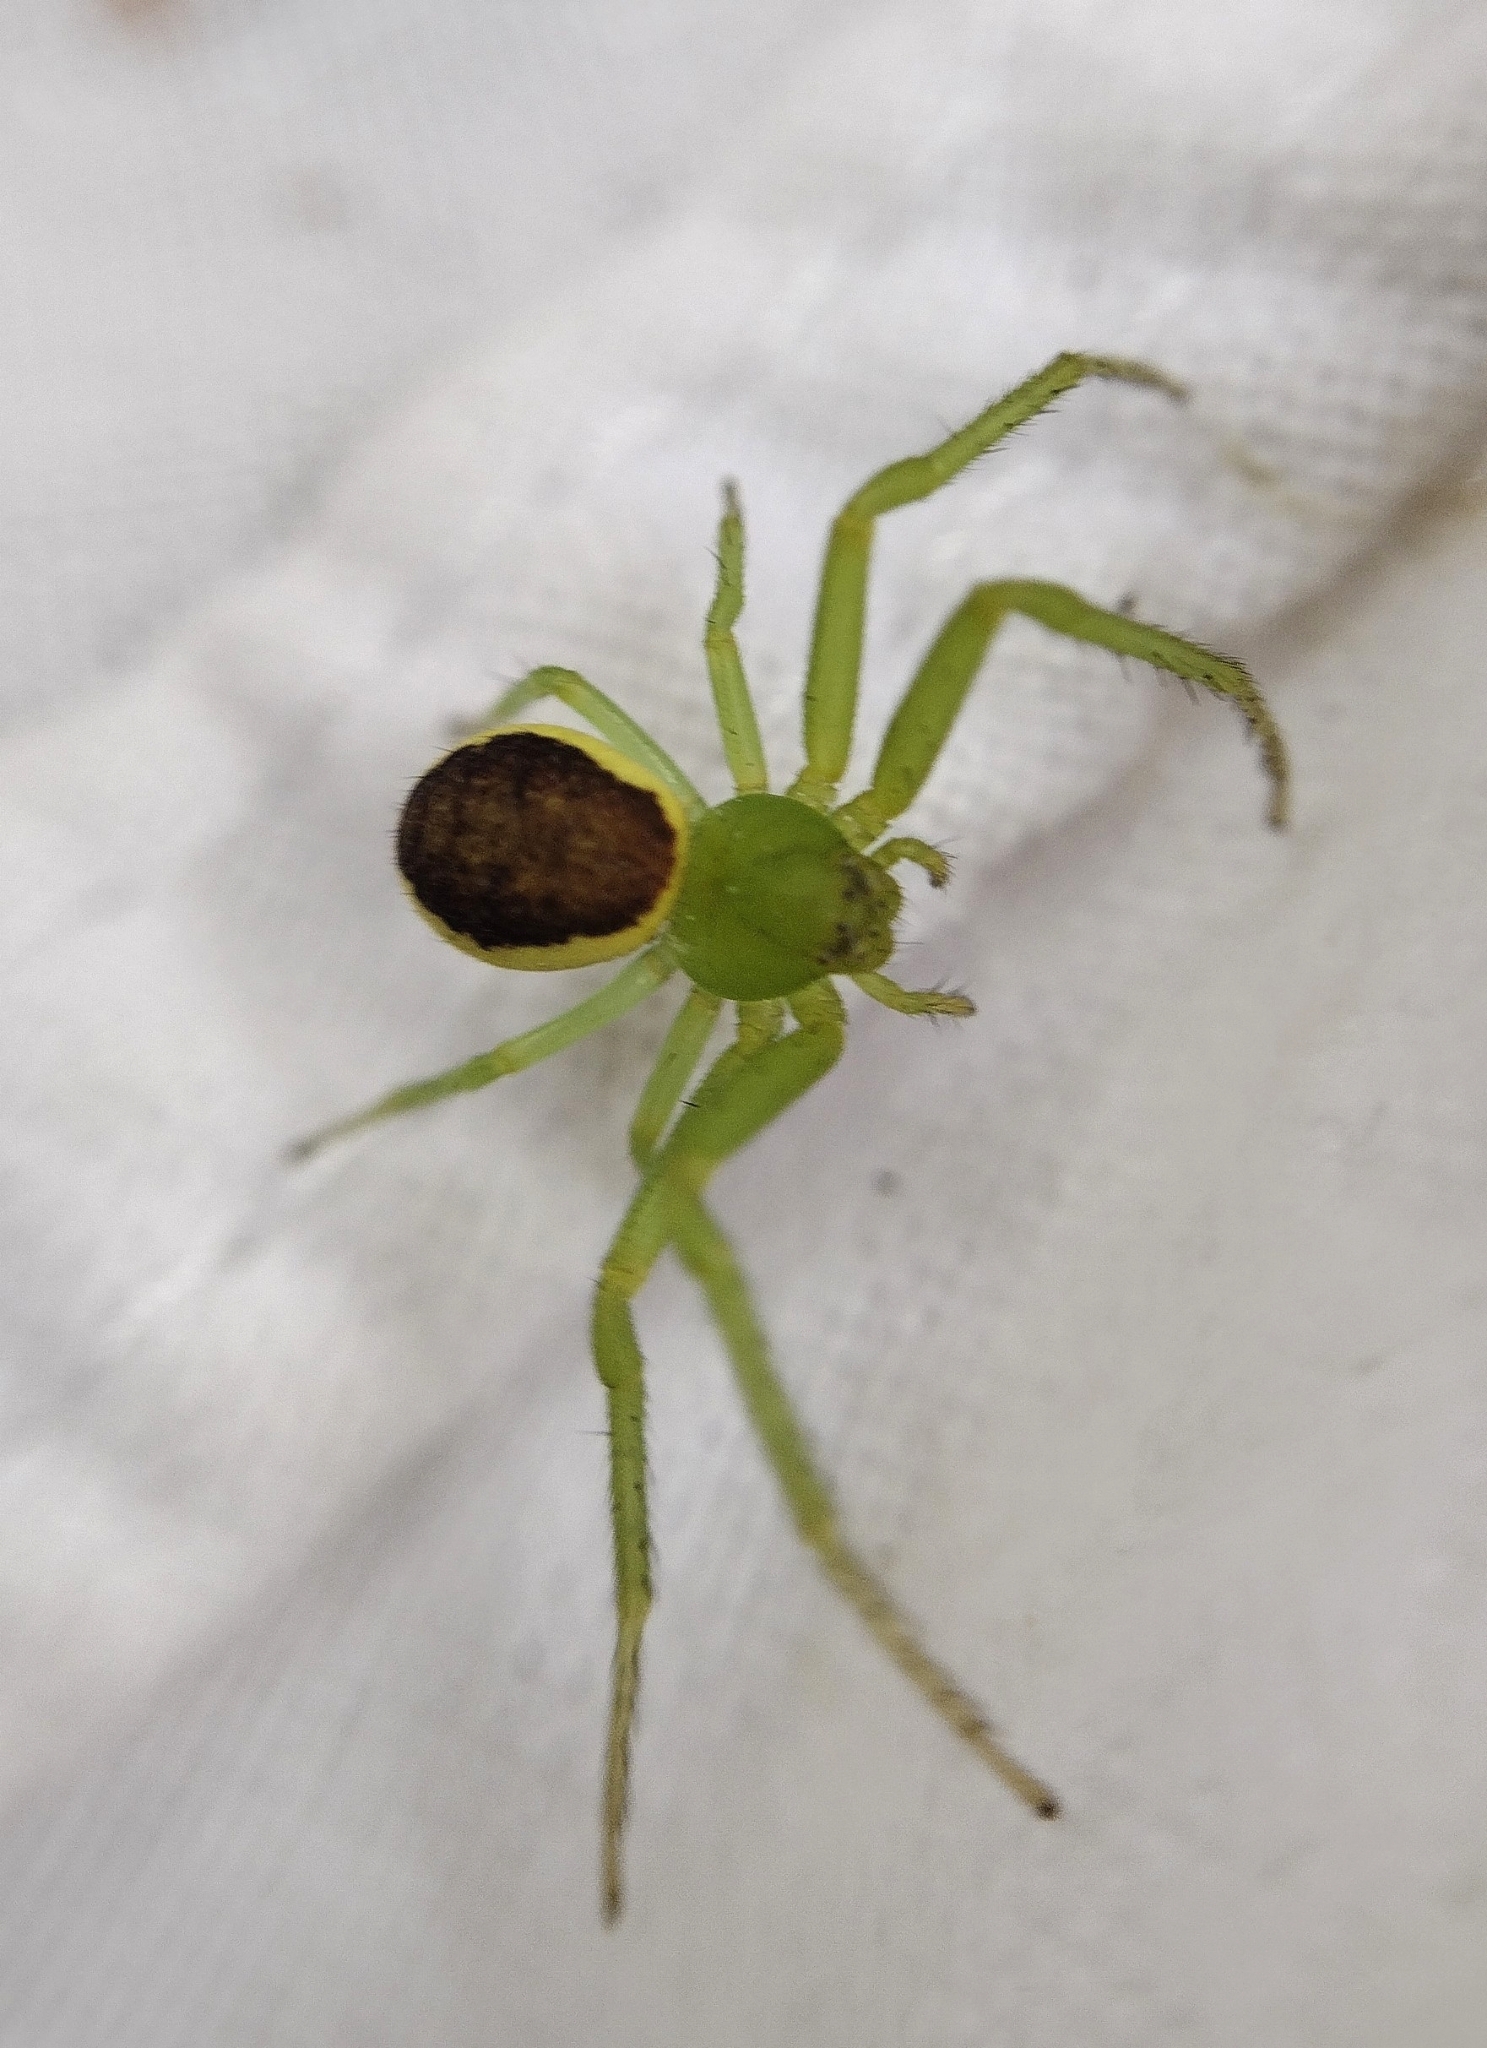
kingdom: Animalia
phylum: Arthropoda
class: Arachnida
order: Araneae
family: Thomisidae
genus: Diaea
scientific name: Diaea dorsata
